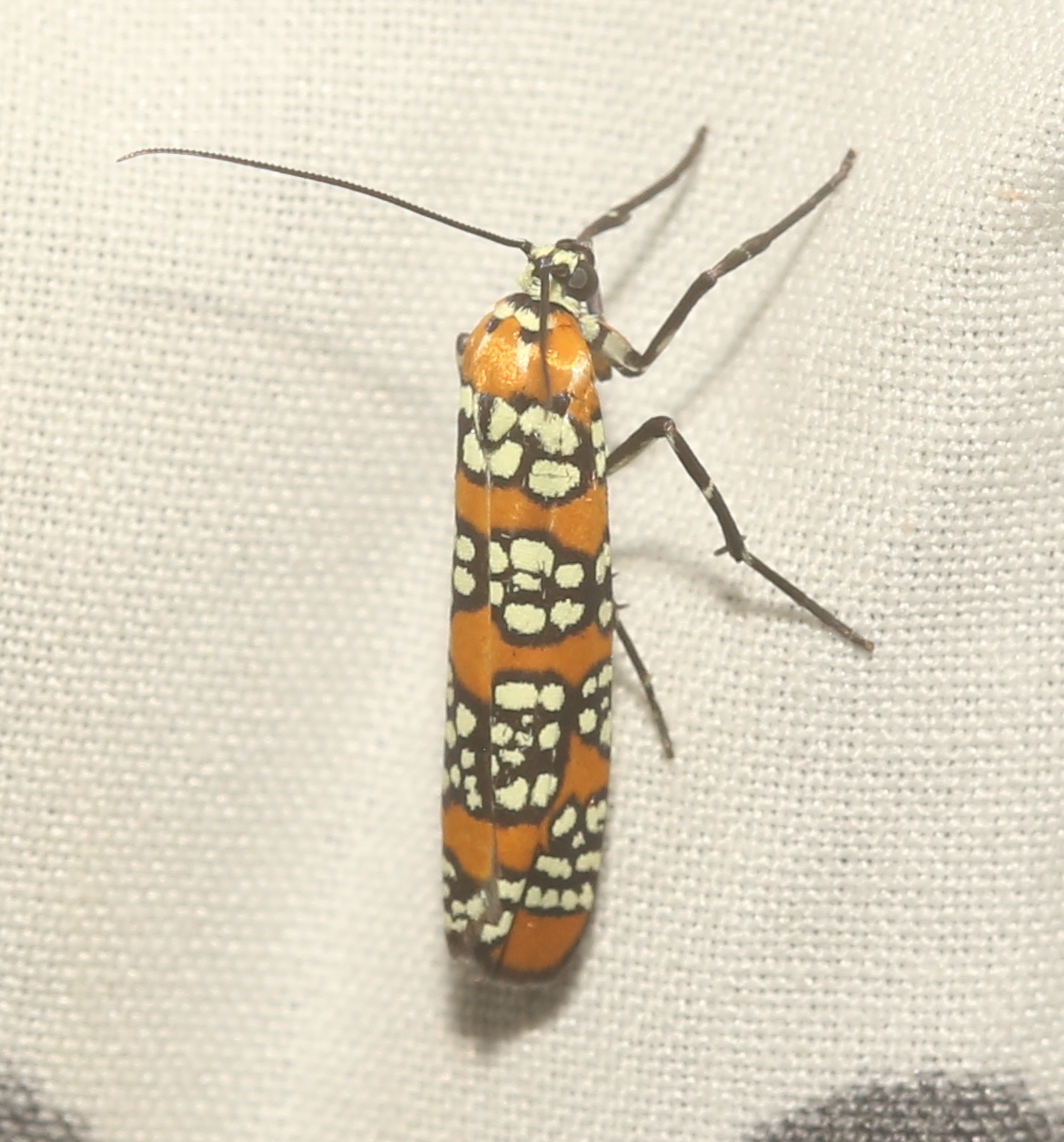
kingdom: Animalia
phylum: Arthropoda
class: Insecta
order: Lepidoptera
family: Attevidae
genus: Atteva
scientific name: Atteva punctella
